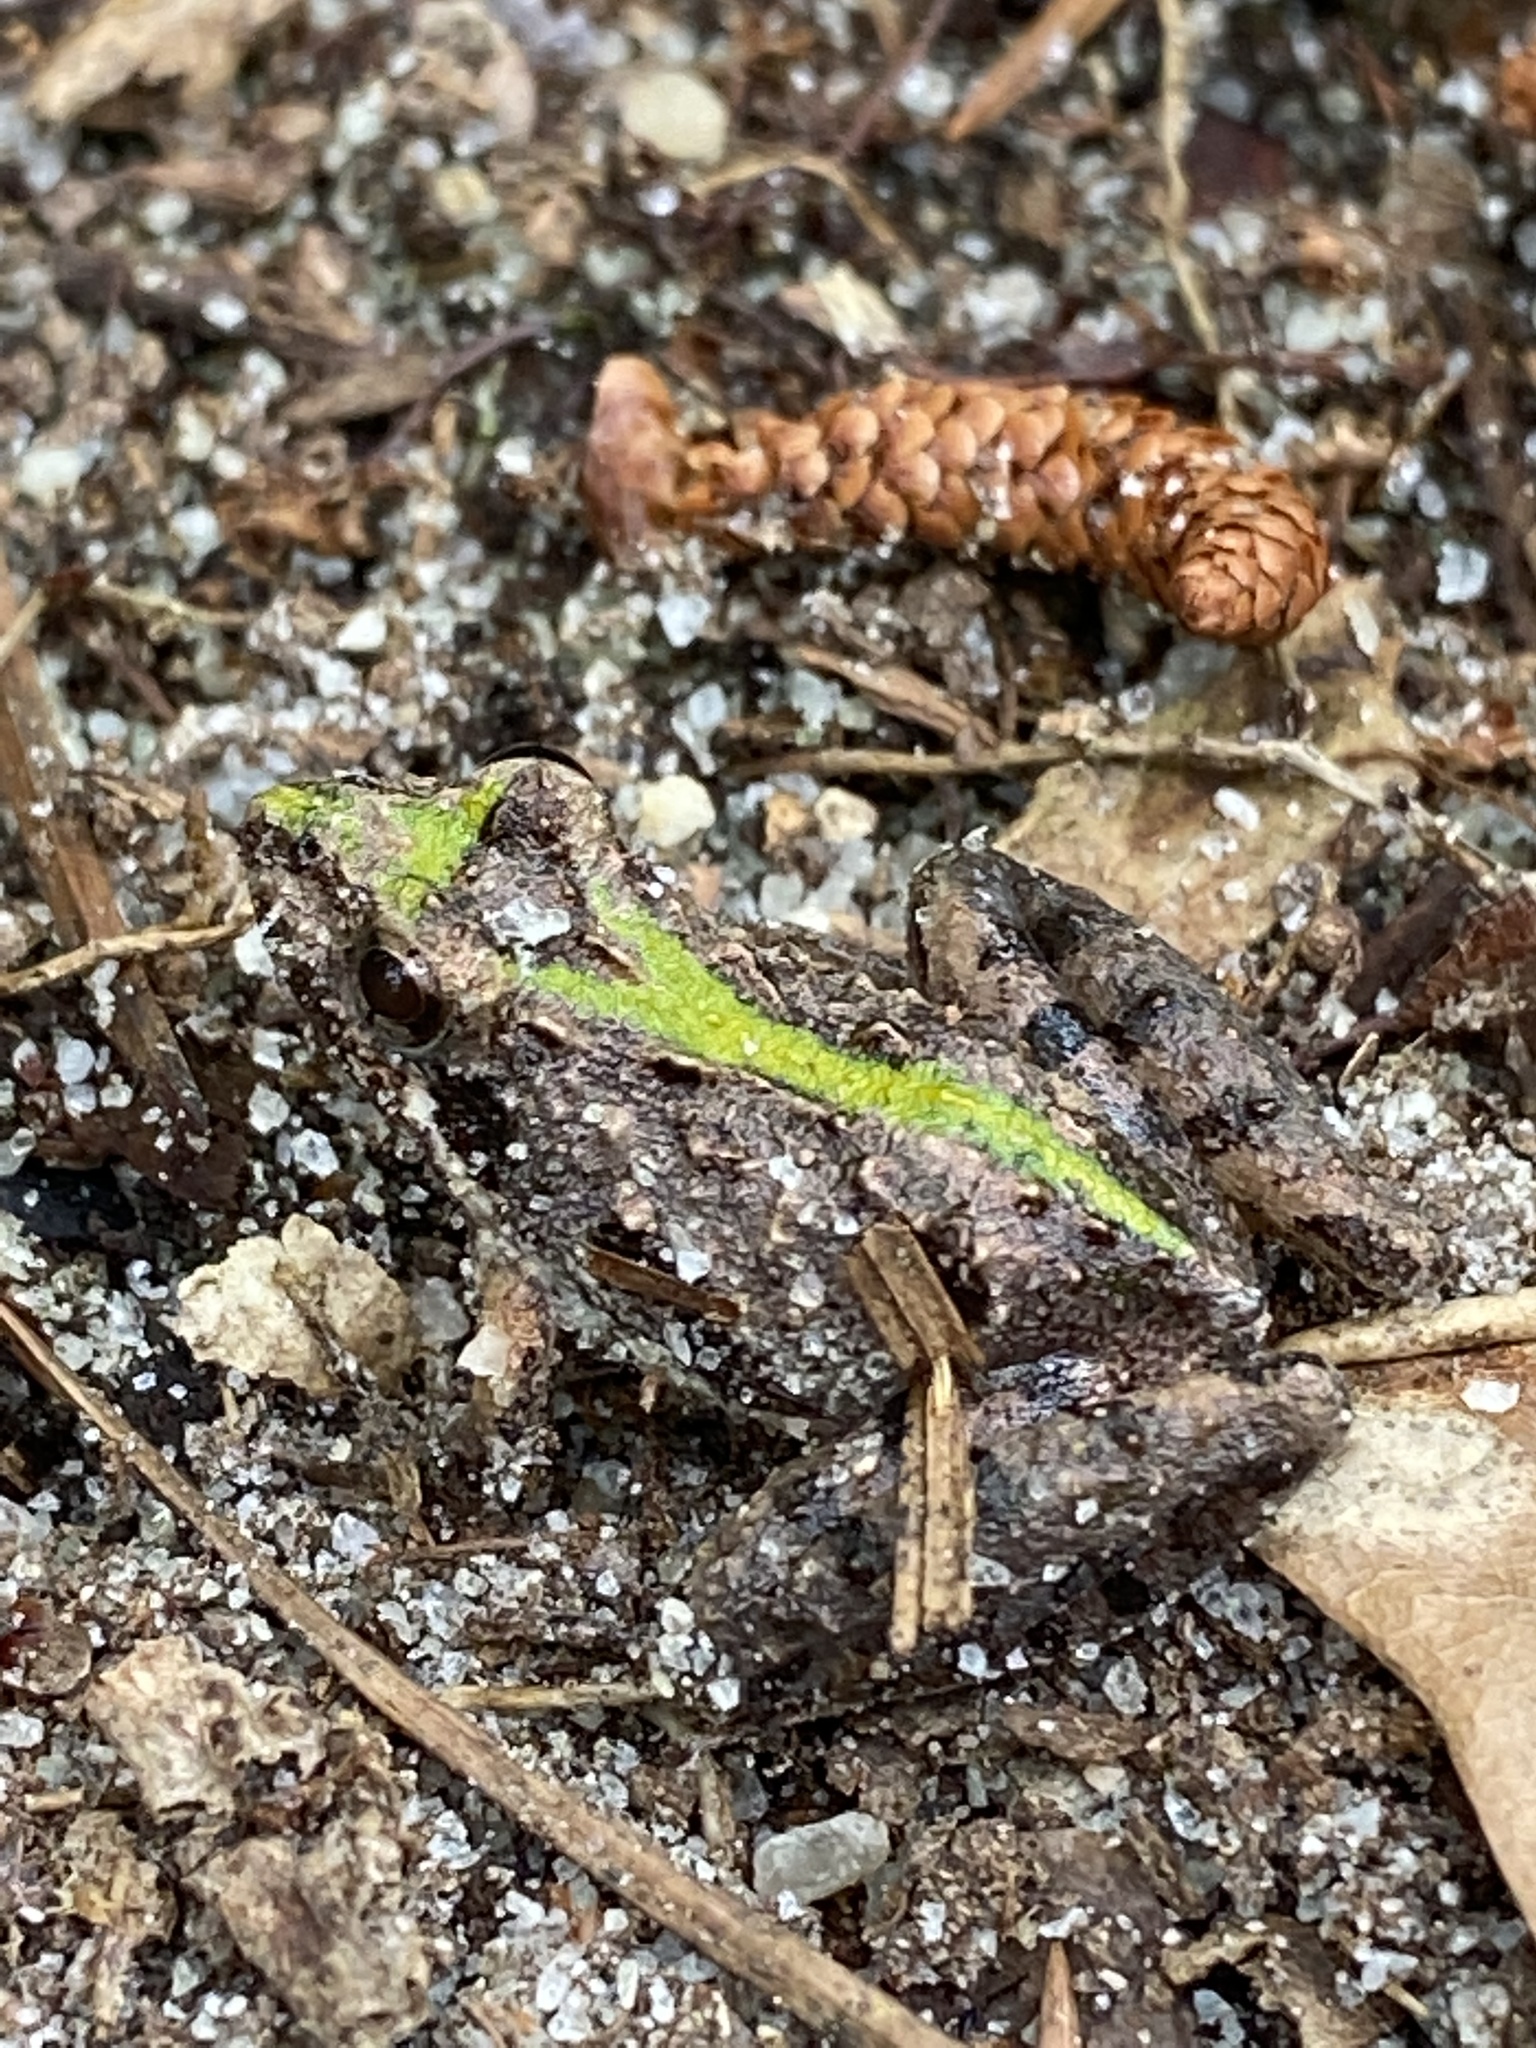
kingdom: Animalia
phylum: Chordata
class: Amphibia
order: Anura
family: Hylidae
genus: Acris
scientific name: Acris gryllus
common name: Southern cricket frog
